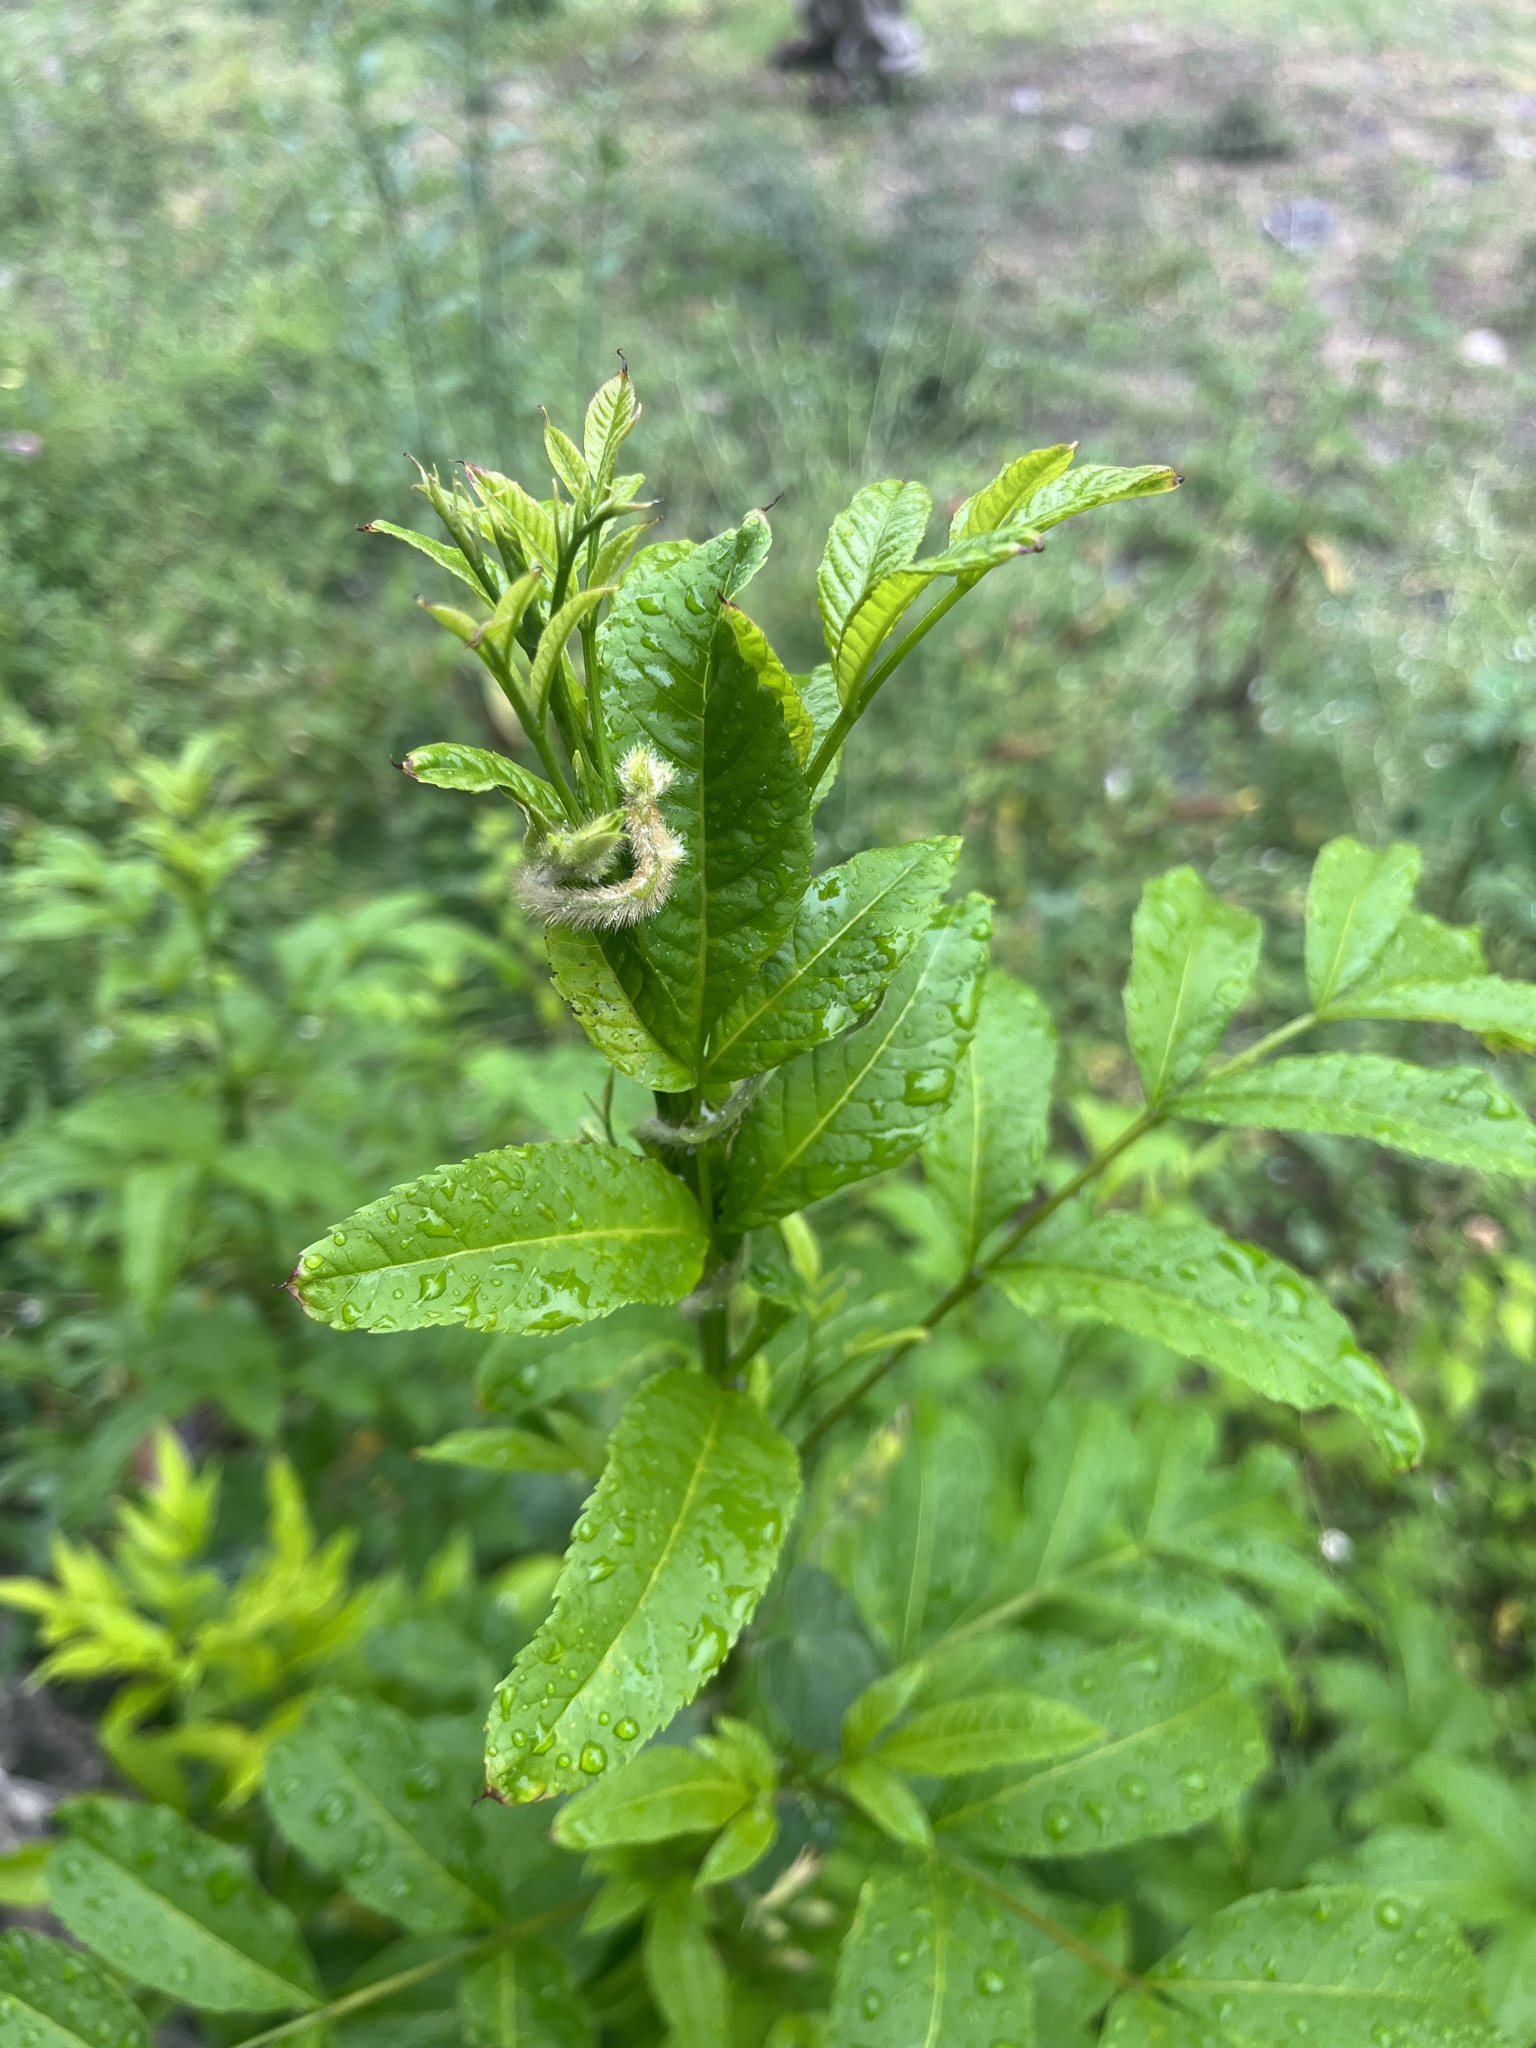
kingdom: Plantae
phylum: Tracheophyta
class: Magnoliopsida
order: Lamiales
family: Bignoniaceae
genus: Tecoma
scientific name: Tecoma stans
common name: Yellow trumpetbush
